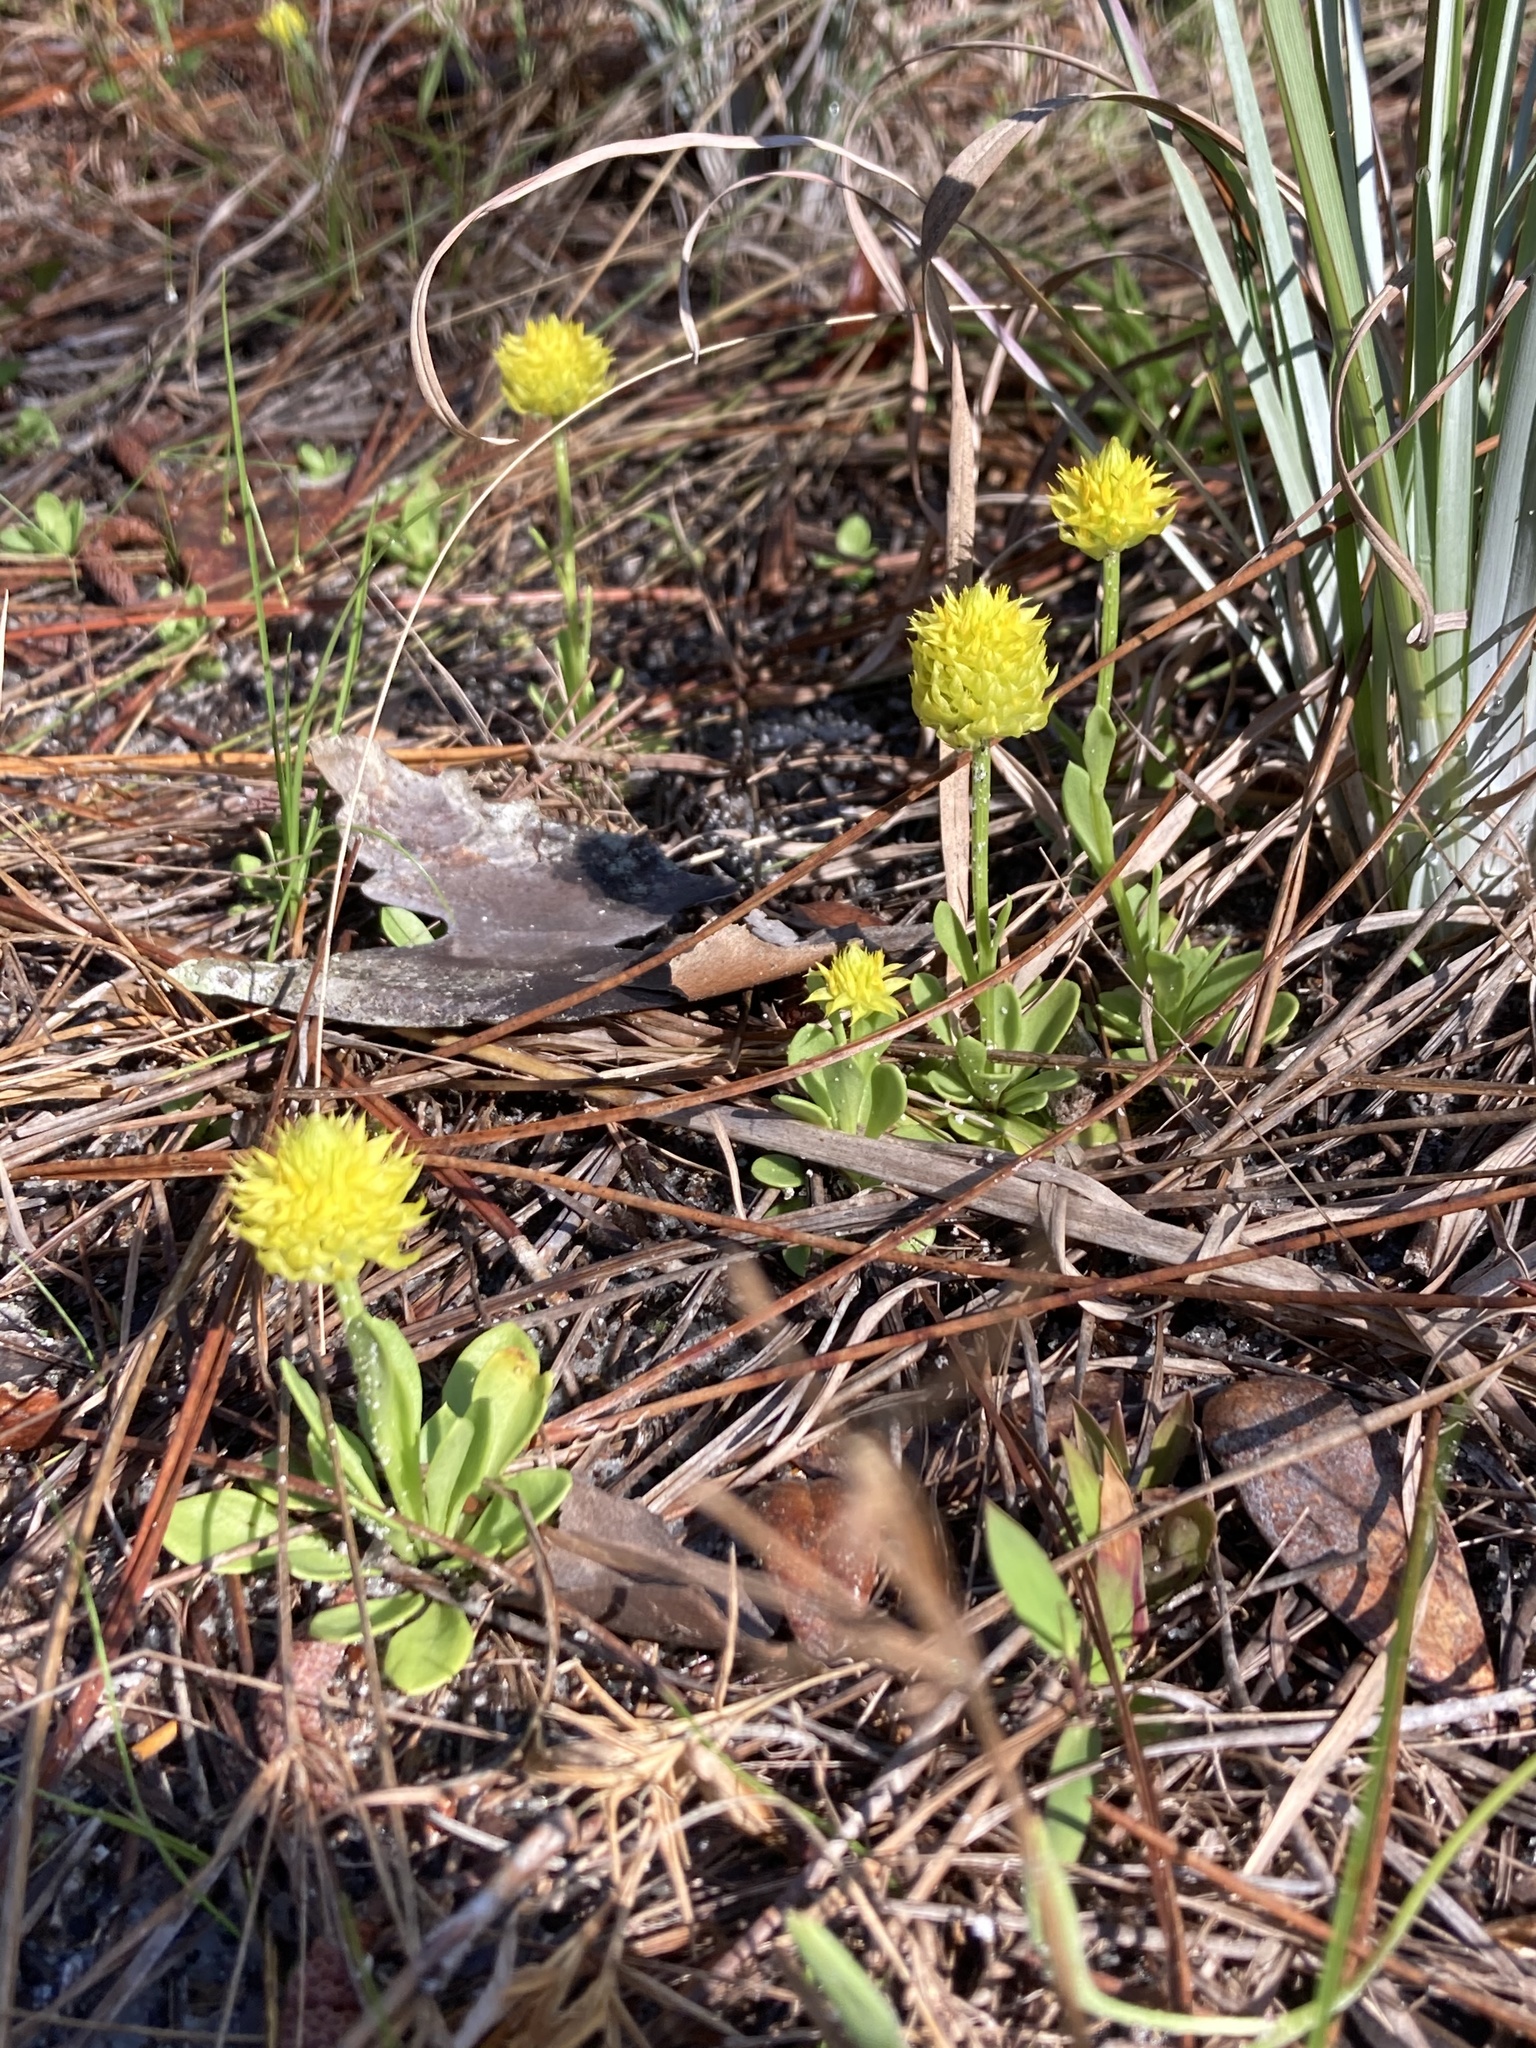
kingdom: Plantae
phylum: Tracheophyta
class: Magnoliopsida
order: Fabales
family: Polygalaceae
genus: Polygala
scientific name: Polygala nana
